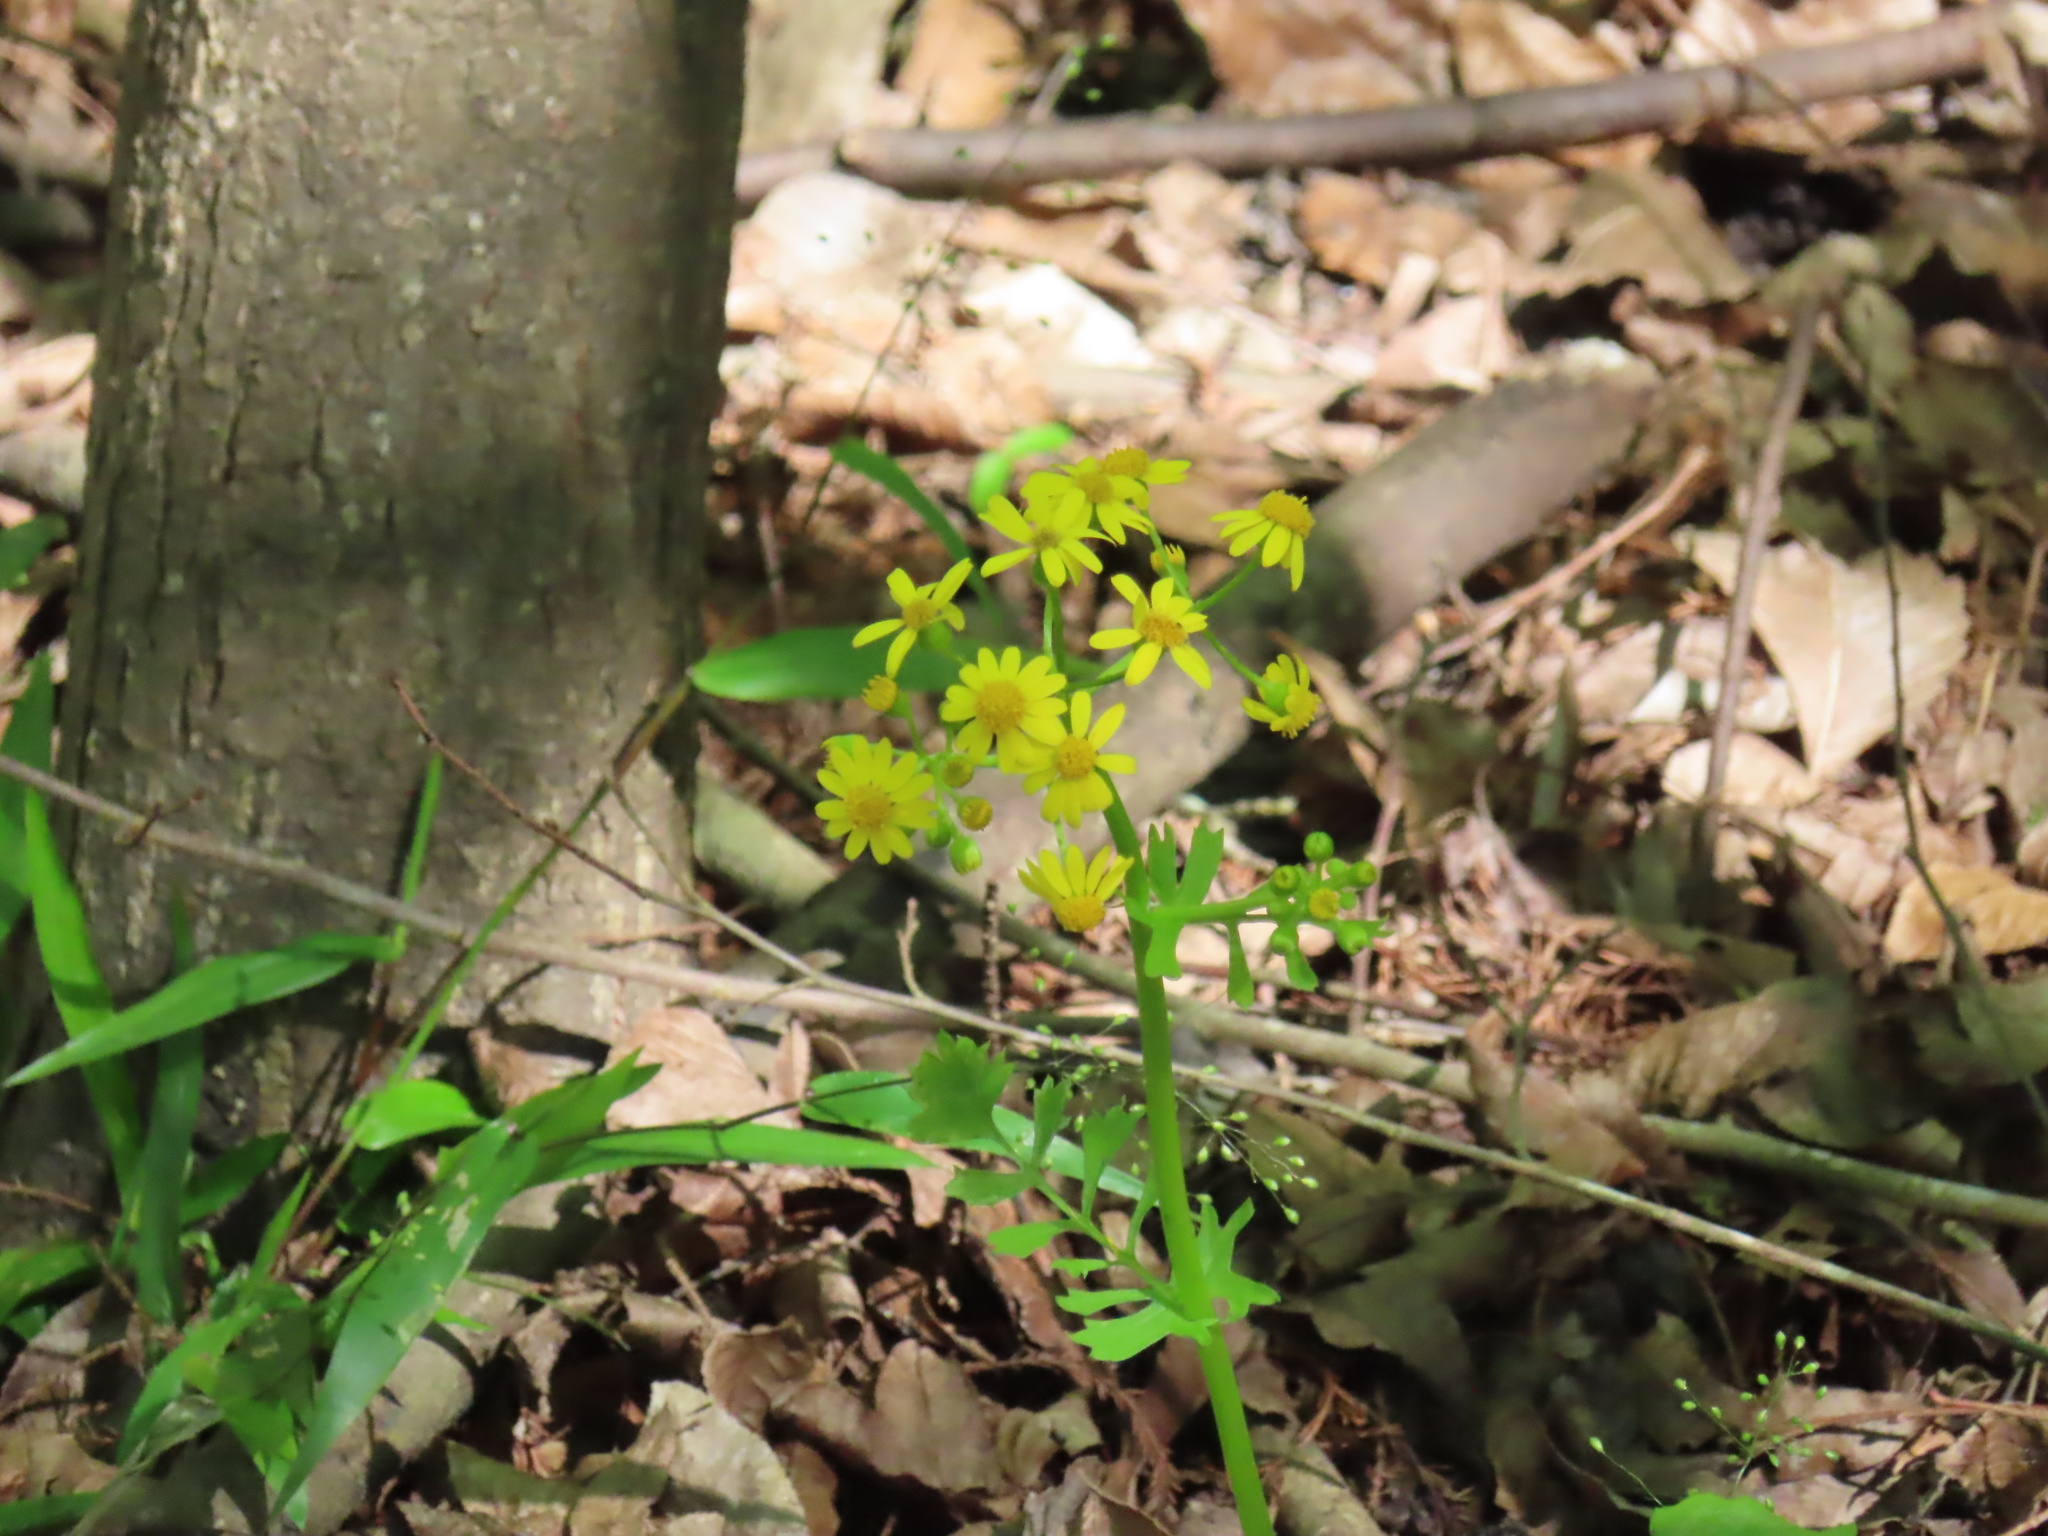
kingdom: Plantae
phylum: Tracheophyta
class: Magnoliopsida
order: Asterales
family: Asteraceae
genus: Packera
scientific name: Packera glabella
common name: Butterweed
